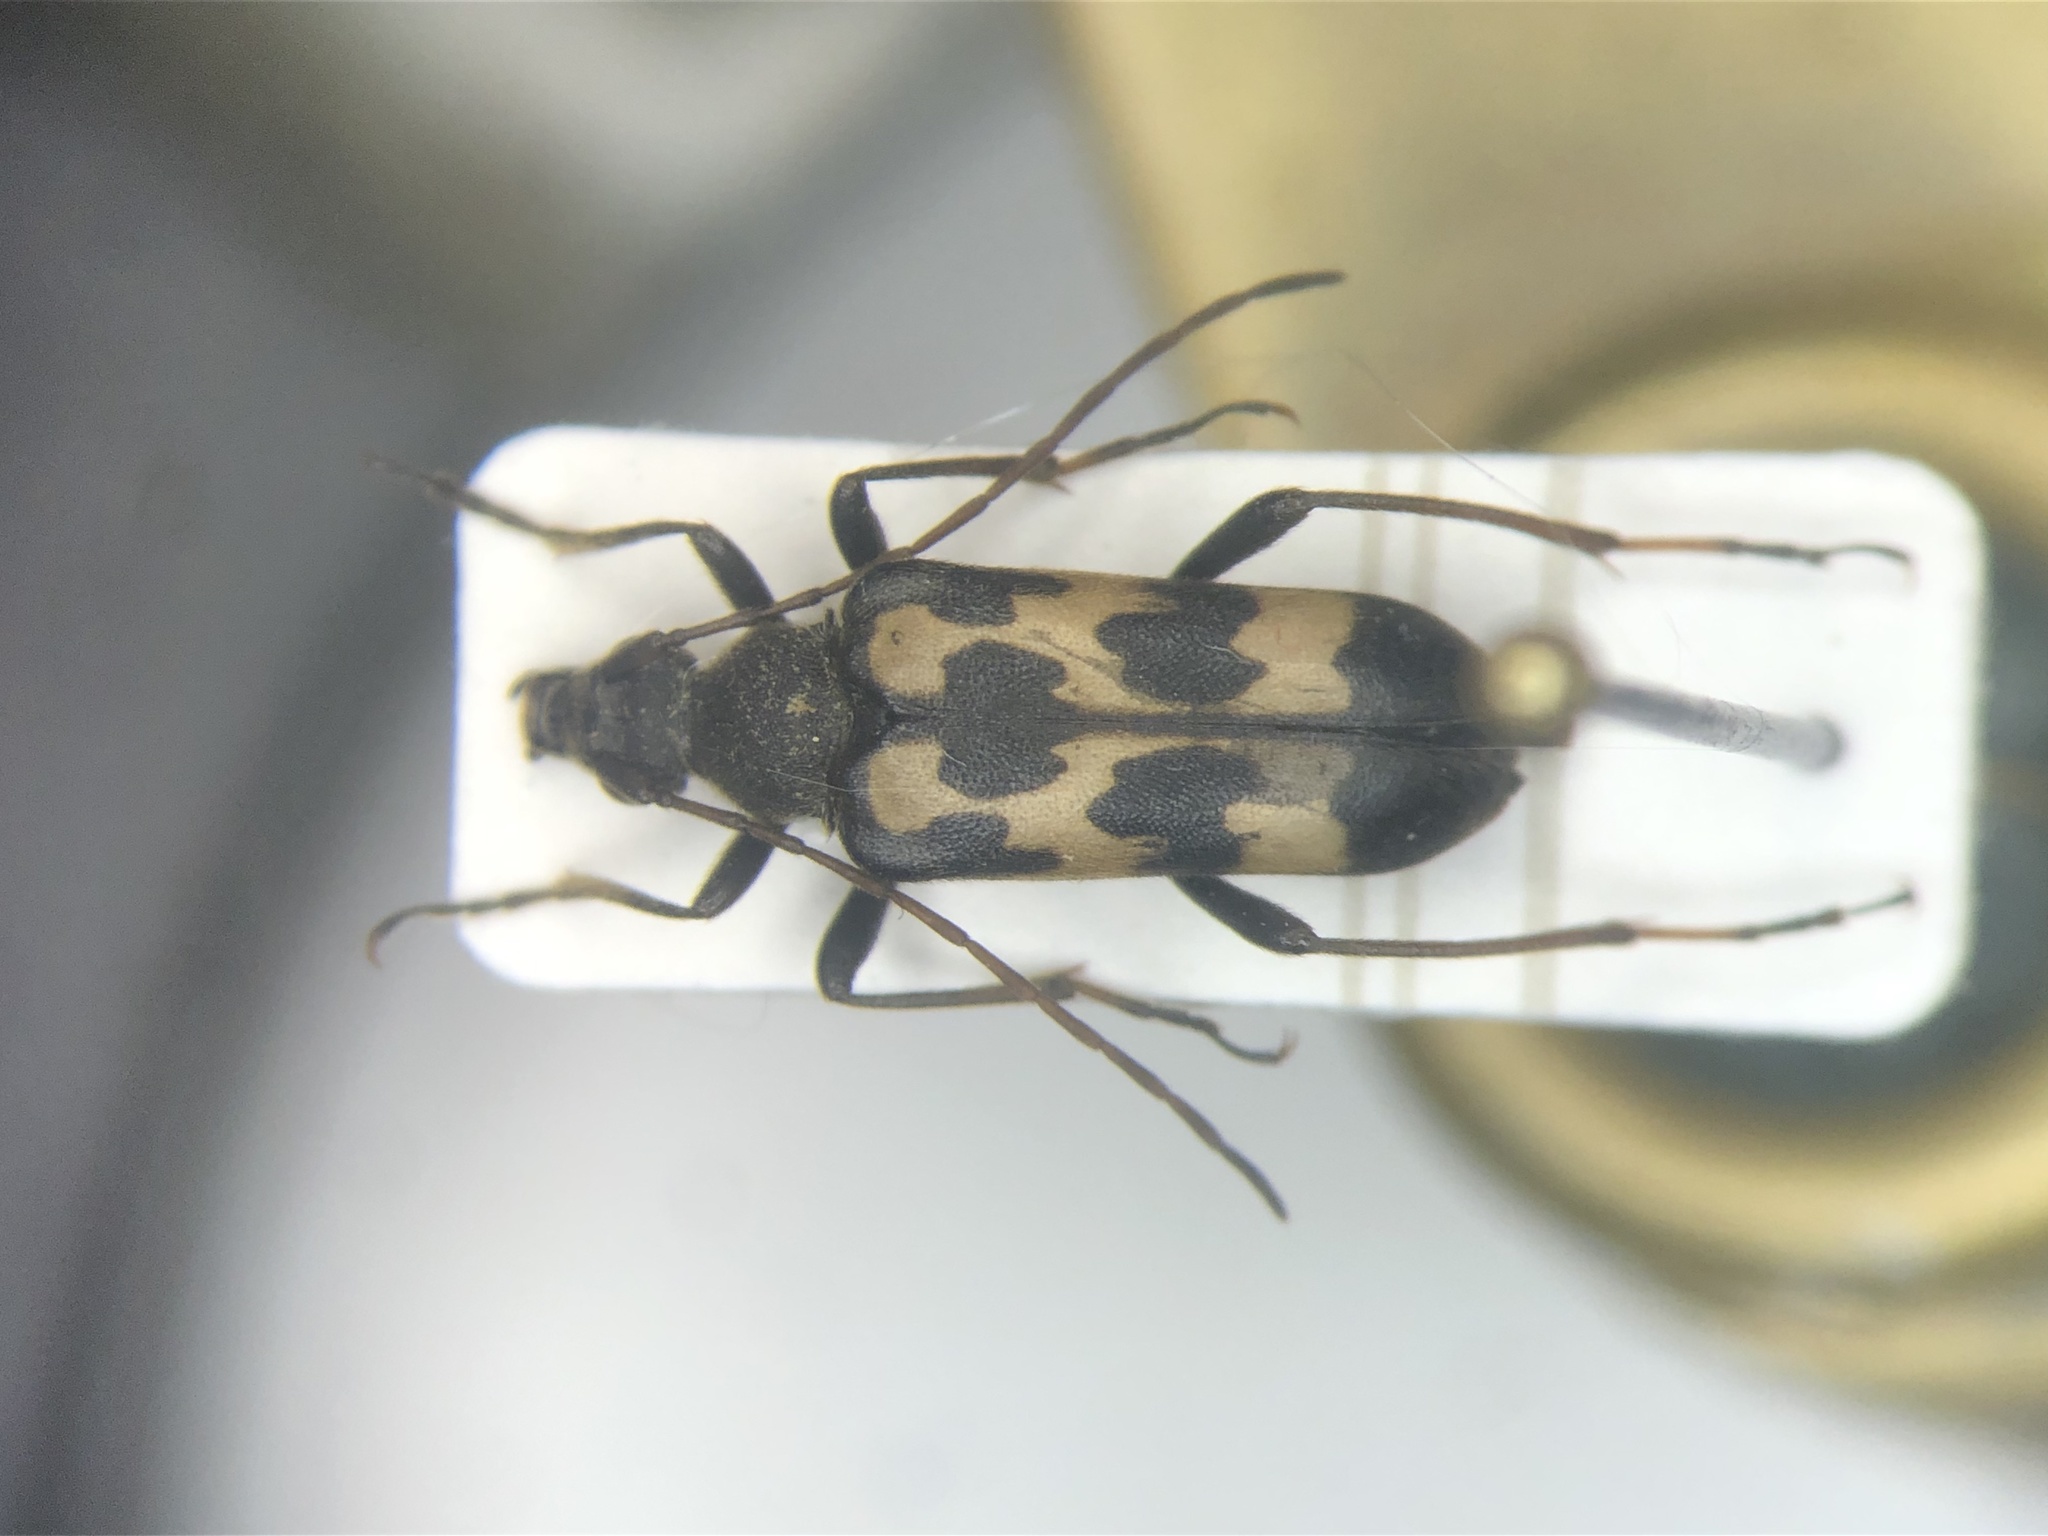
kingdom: Animalia
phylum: Arthropoda
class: Insecta
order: Coleoptera
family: Cerambycidae
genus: Judolia
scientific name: Judolia montivagans
